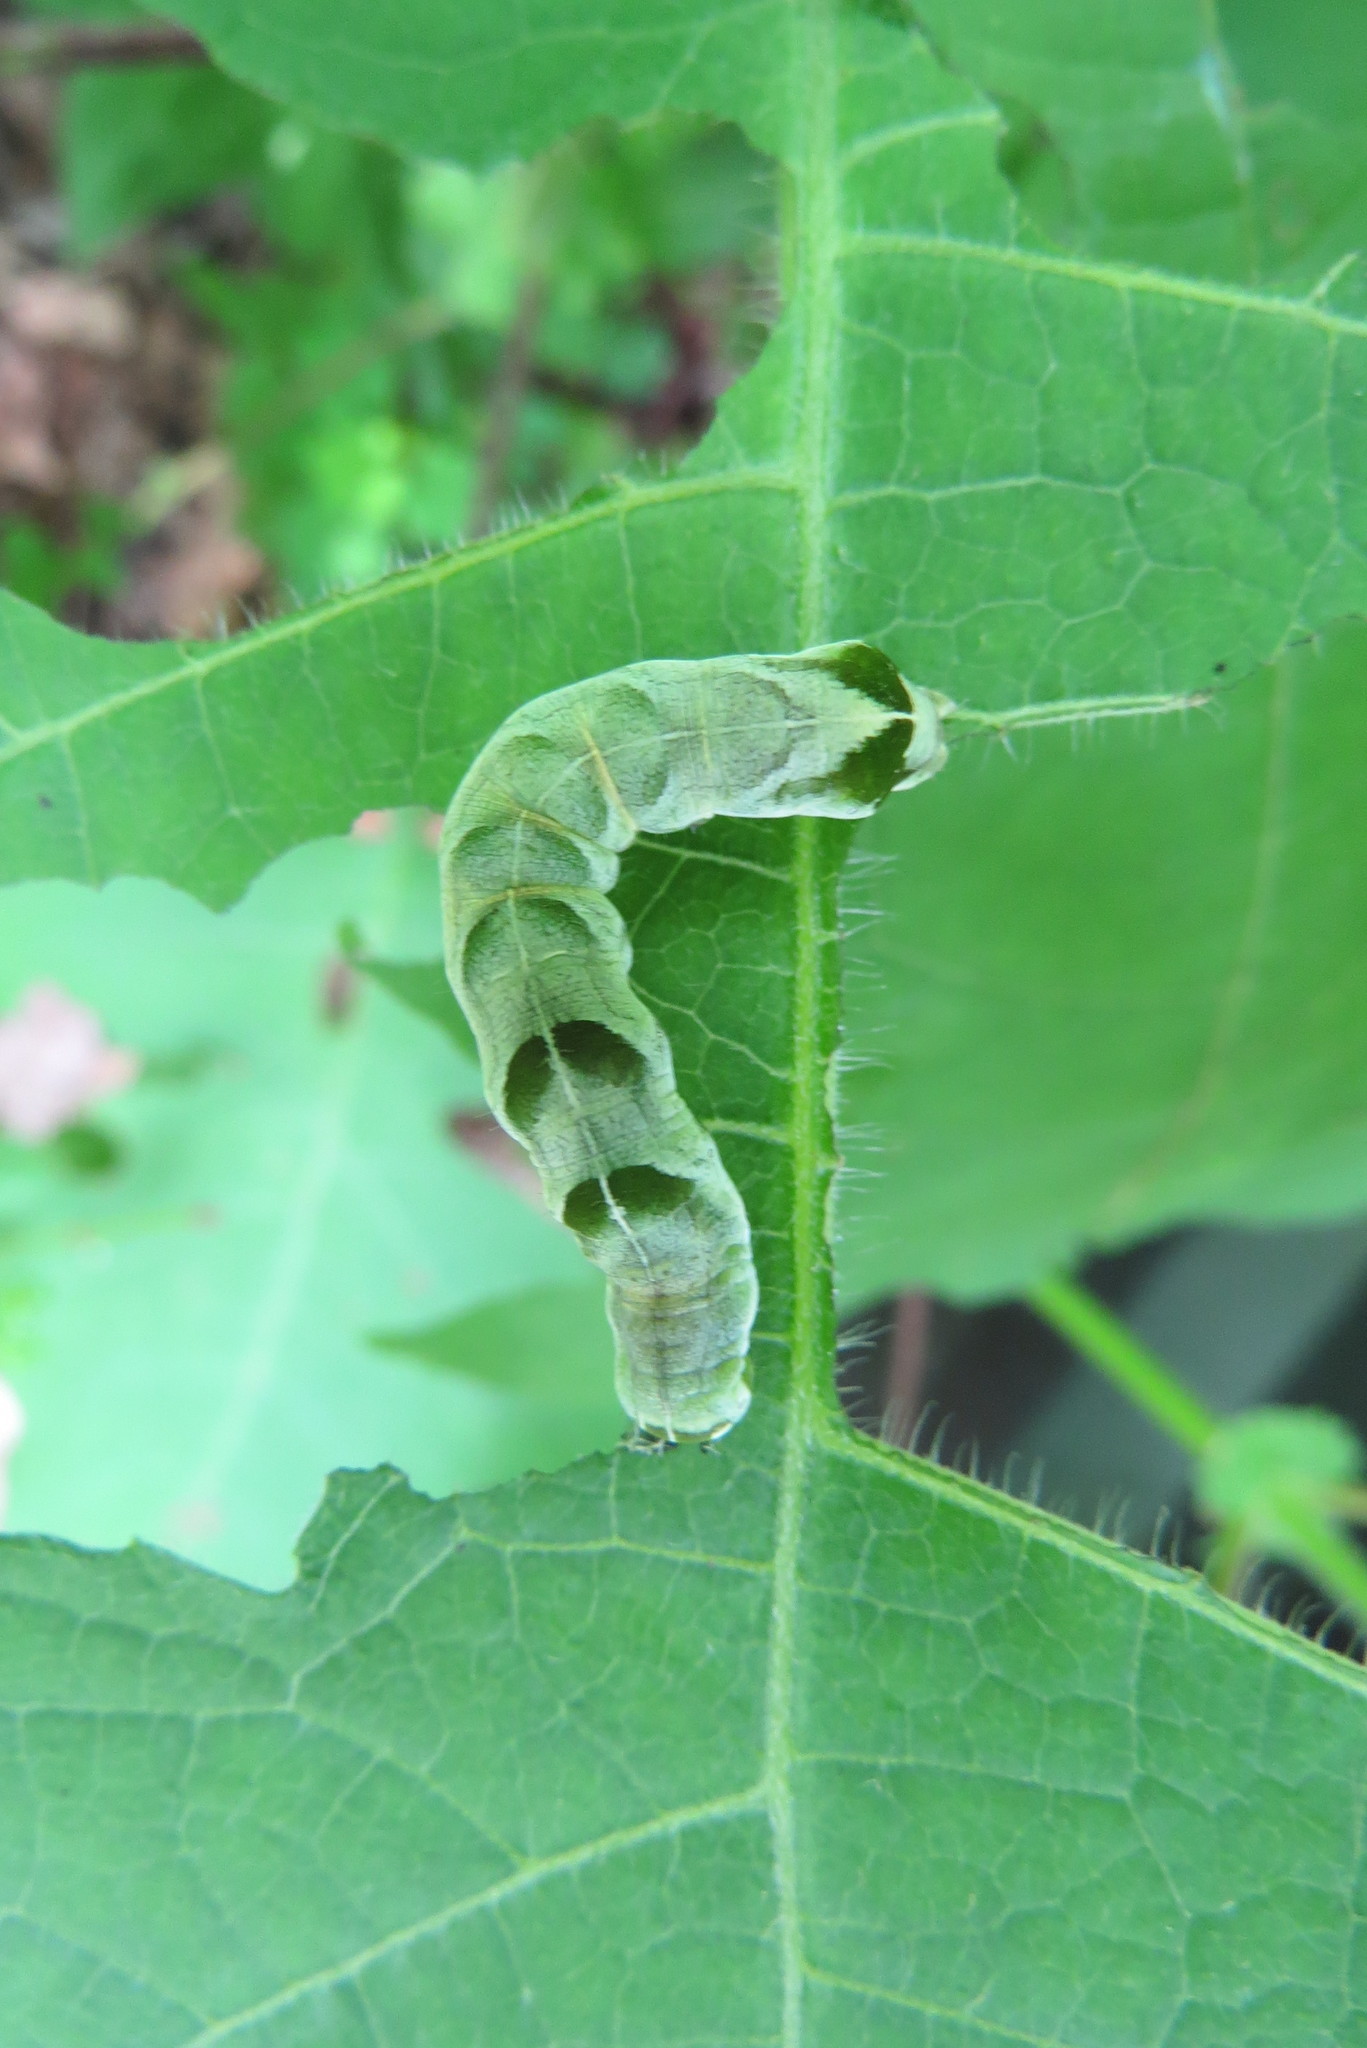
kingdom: Animalia
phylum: Arthropoda
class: Insecta
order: Lepidoptera
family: Noctuidae
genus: Melanchra
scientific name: Melanchra adjuncta
